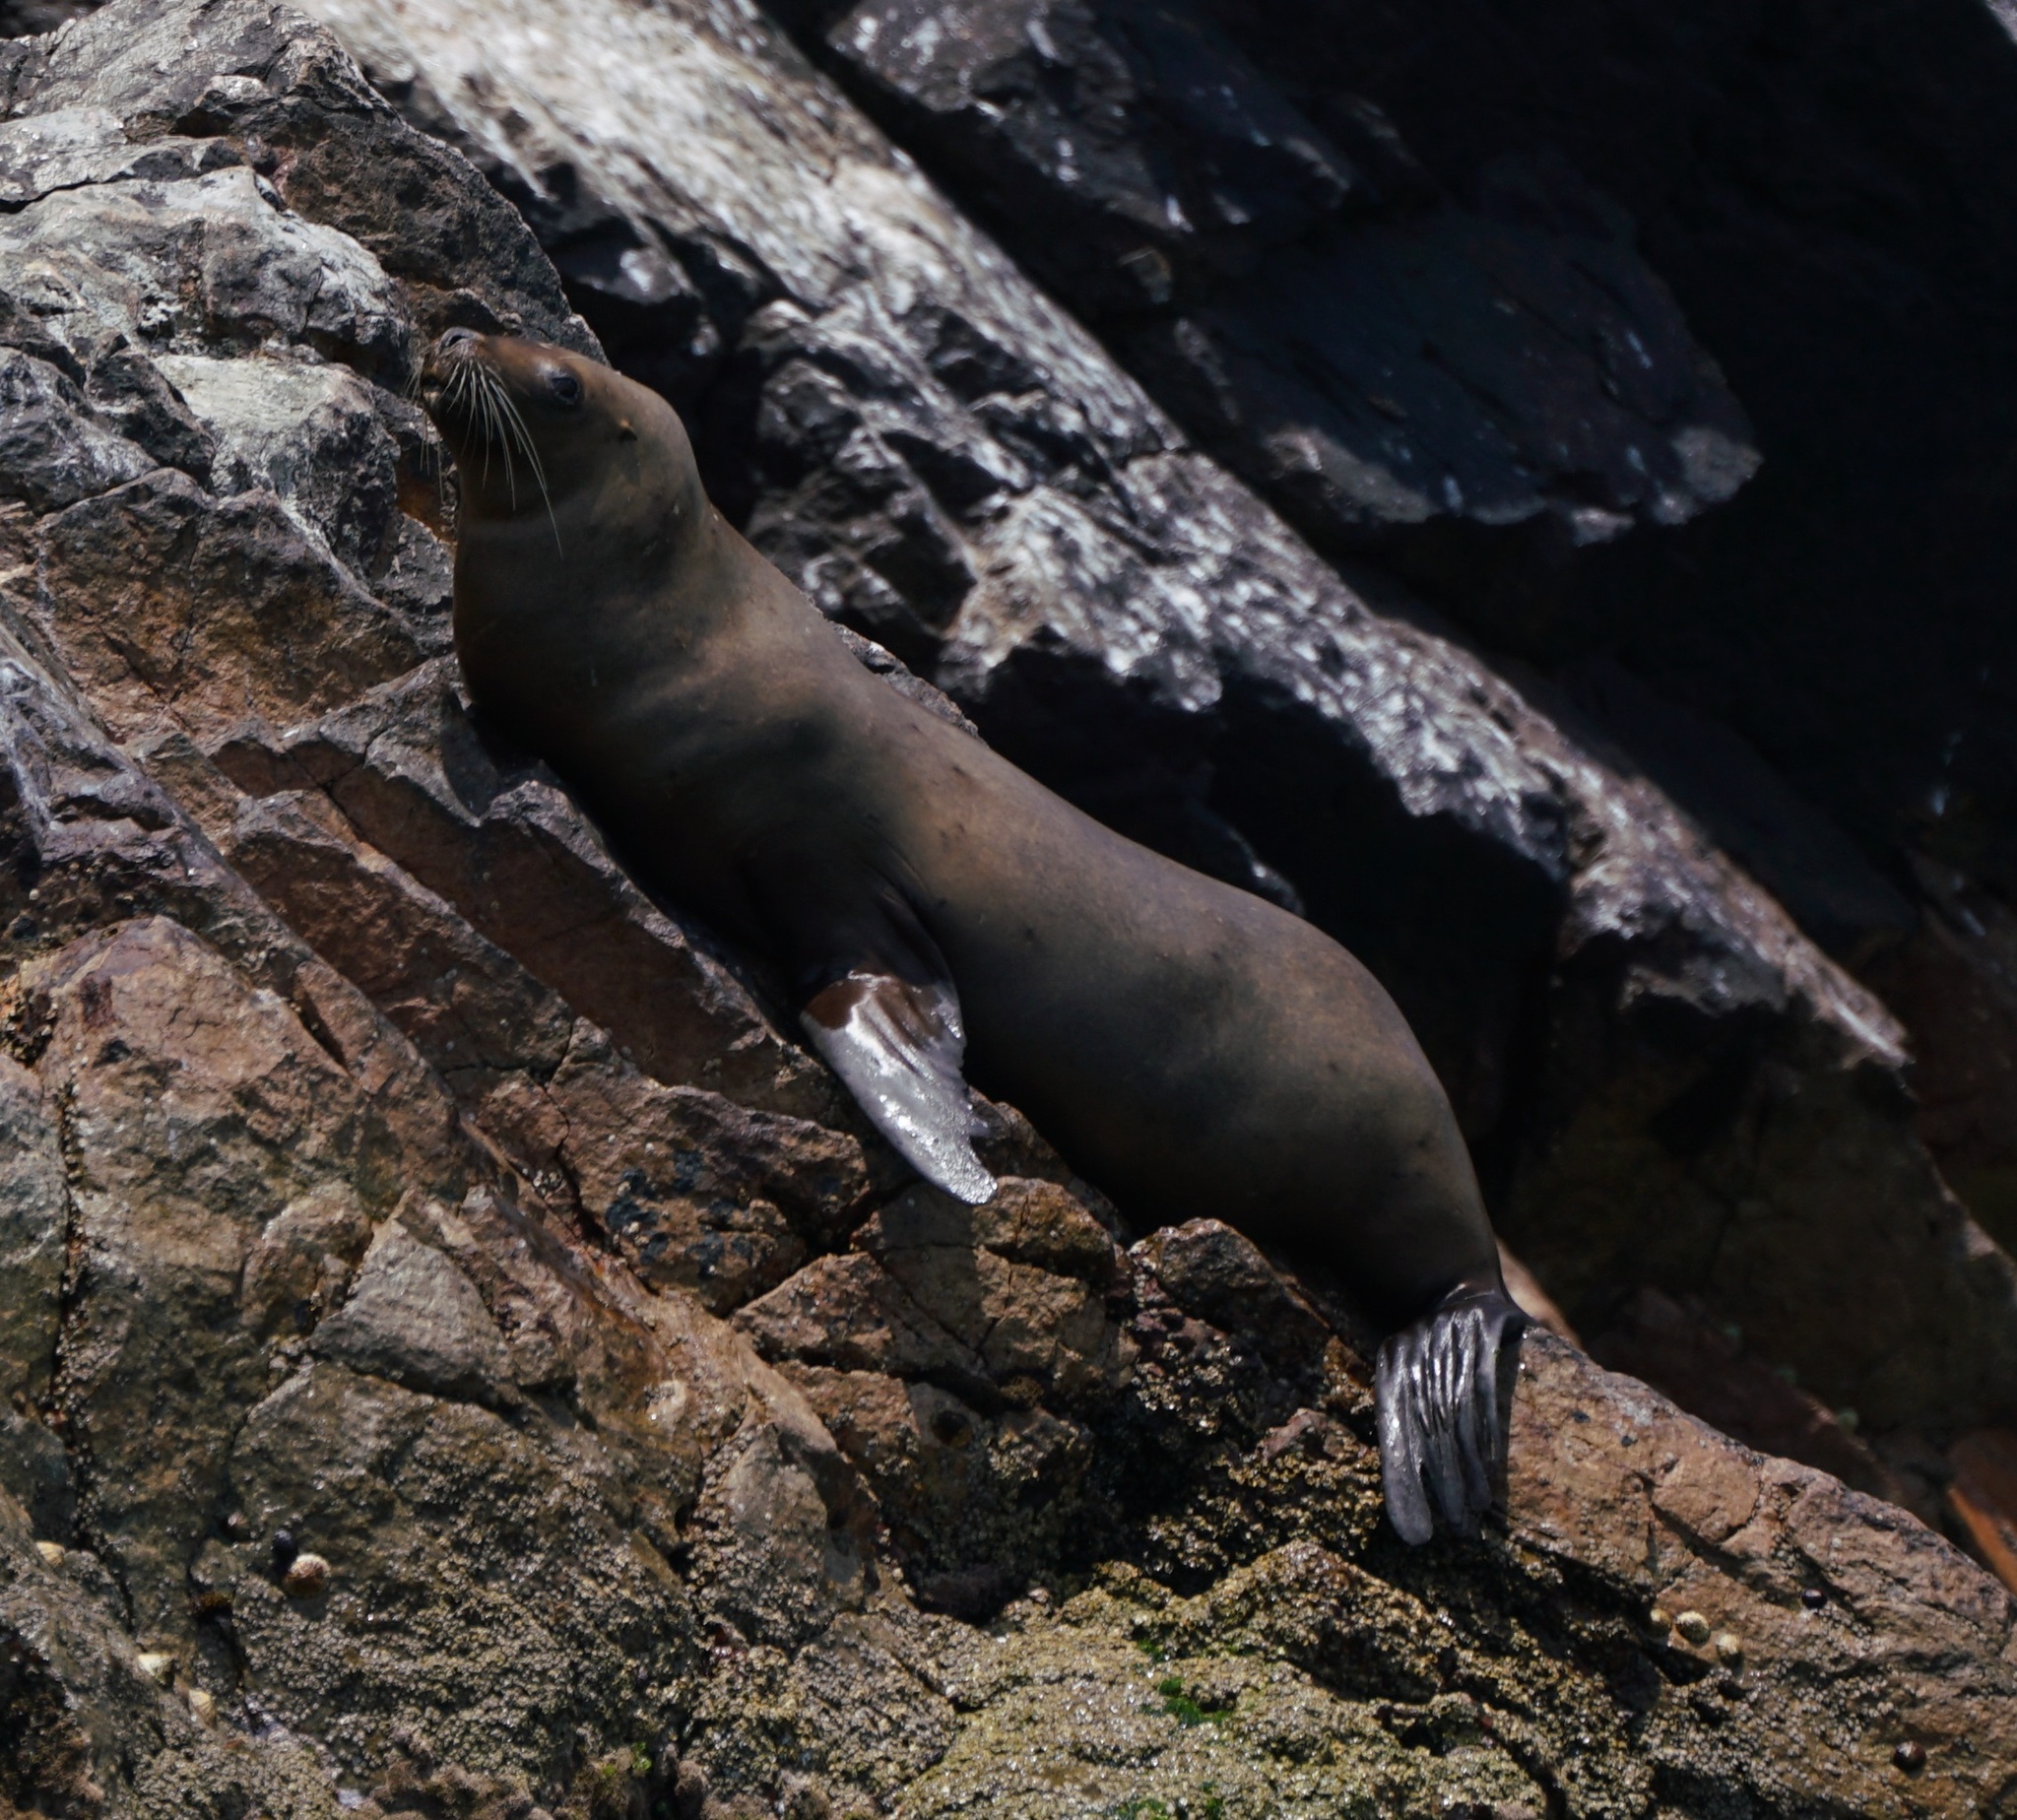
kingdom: Animalia
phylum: Chordata
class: Mammalia
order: Carnivora
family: Otariidae
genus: Otaria
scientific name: Otaria byronia
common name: South american sea lion
